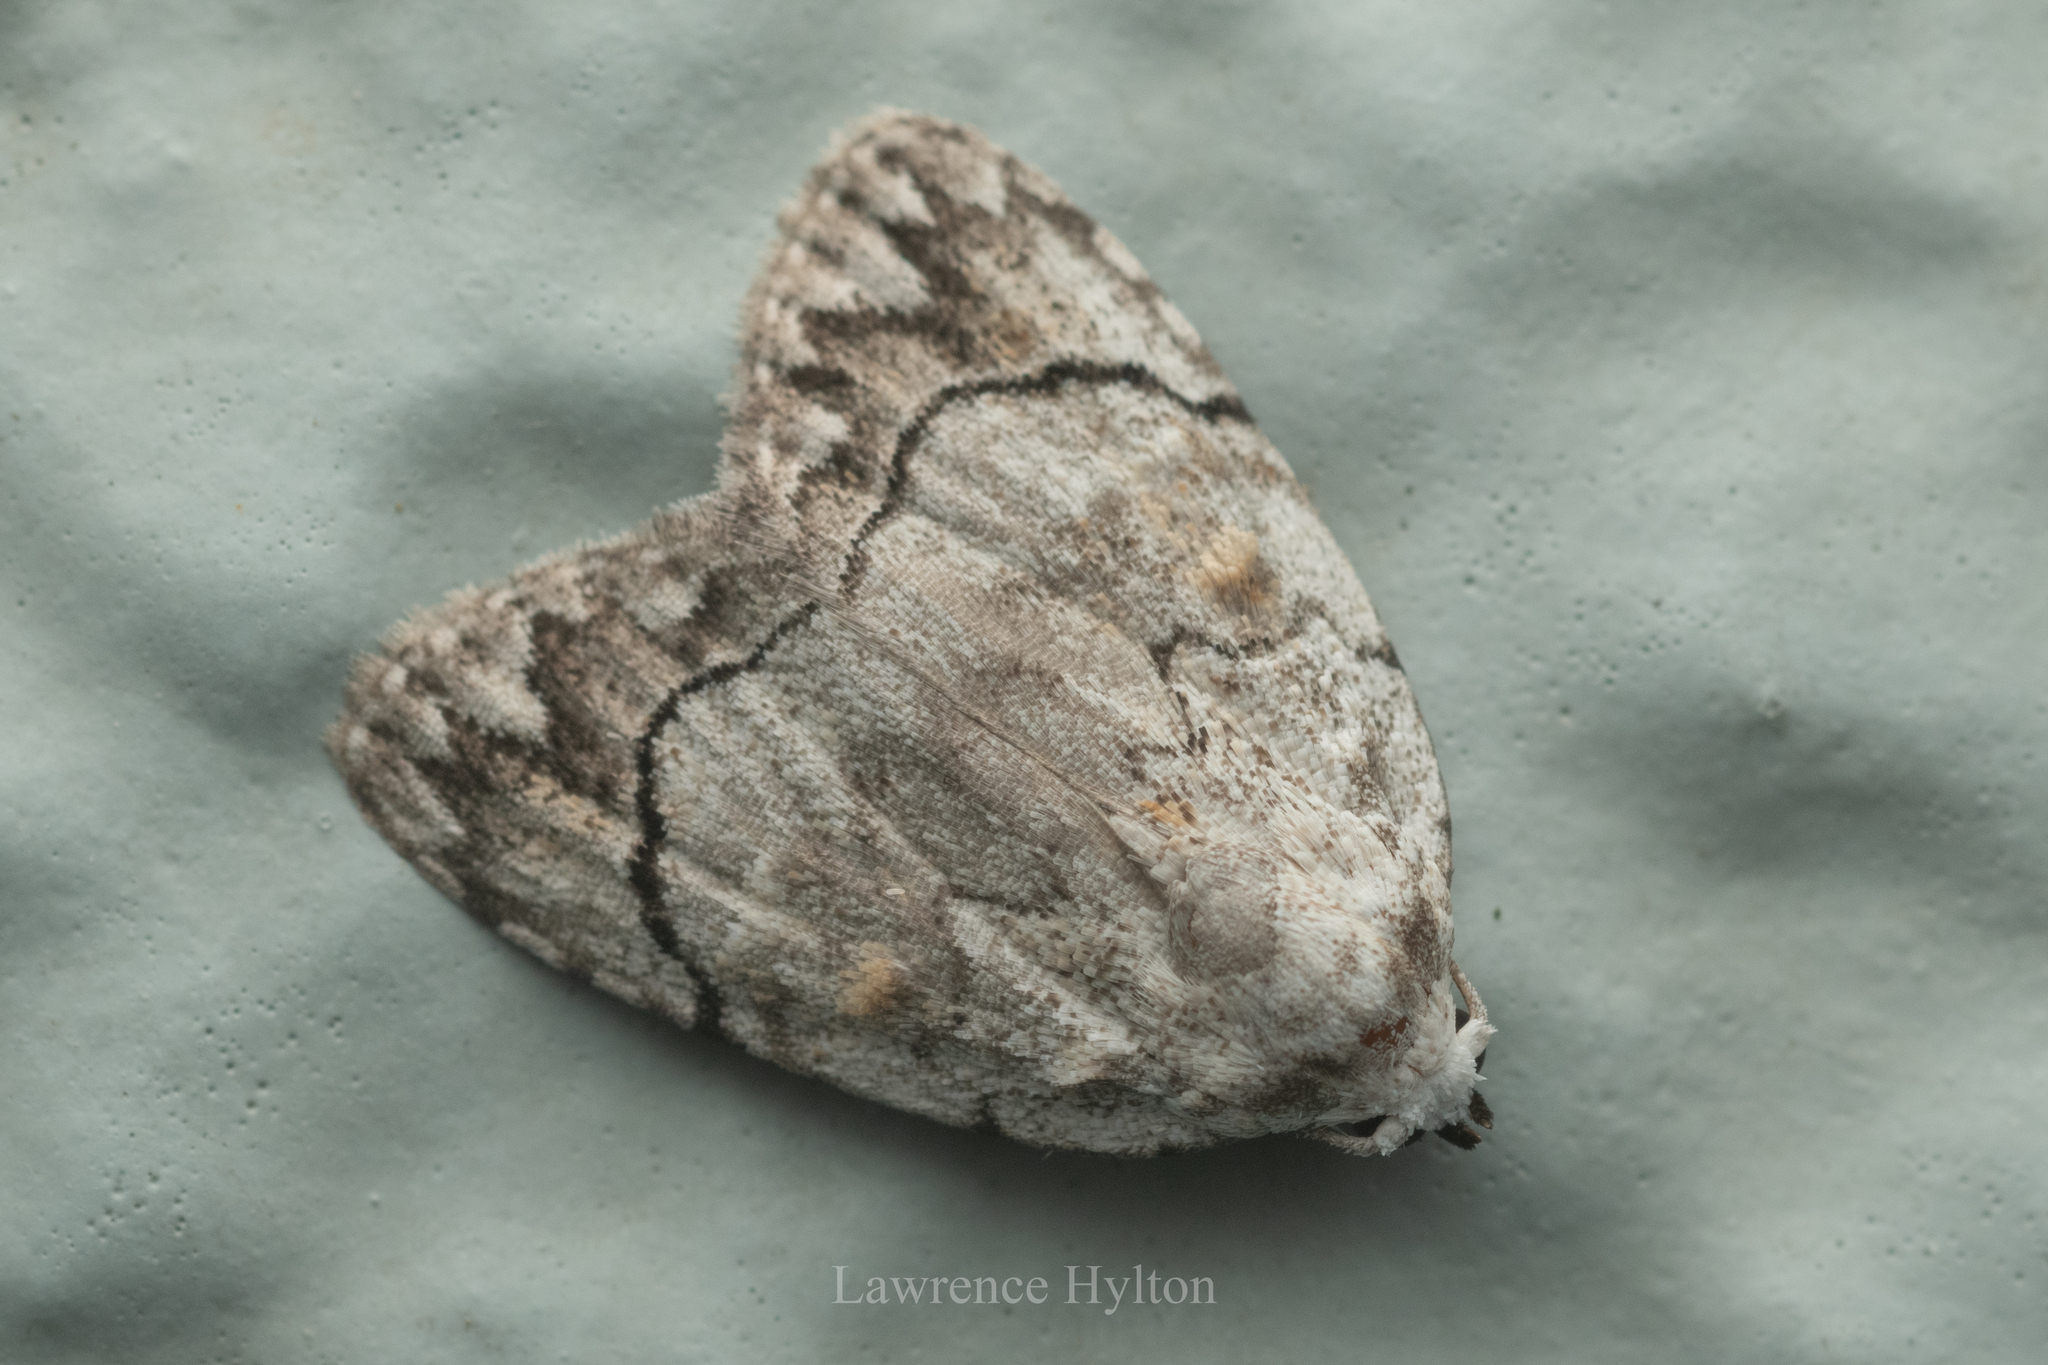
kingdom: Animalia
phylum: Arthropoda
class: Insecta
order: Lepidoptera
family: Nolidae
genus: Melanographia
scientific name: Melanographia flexilineata
